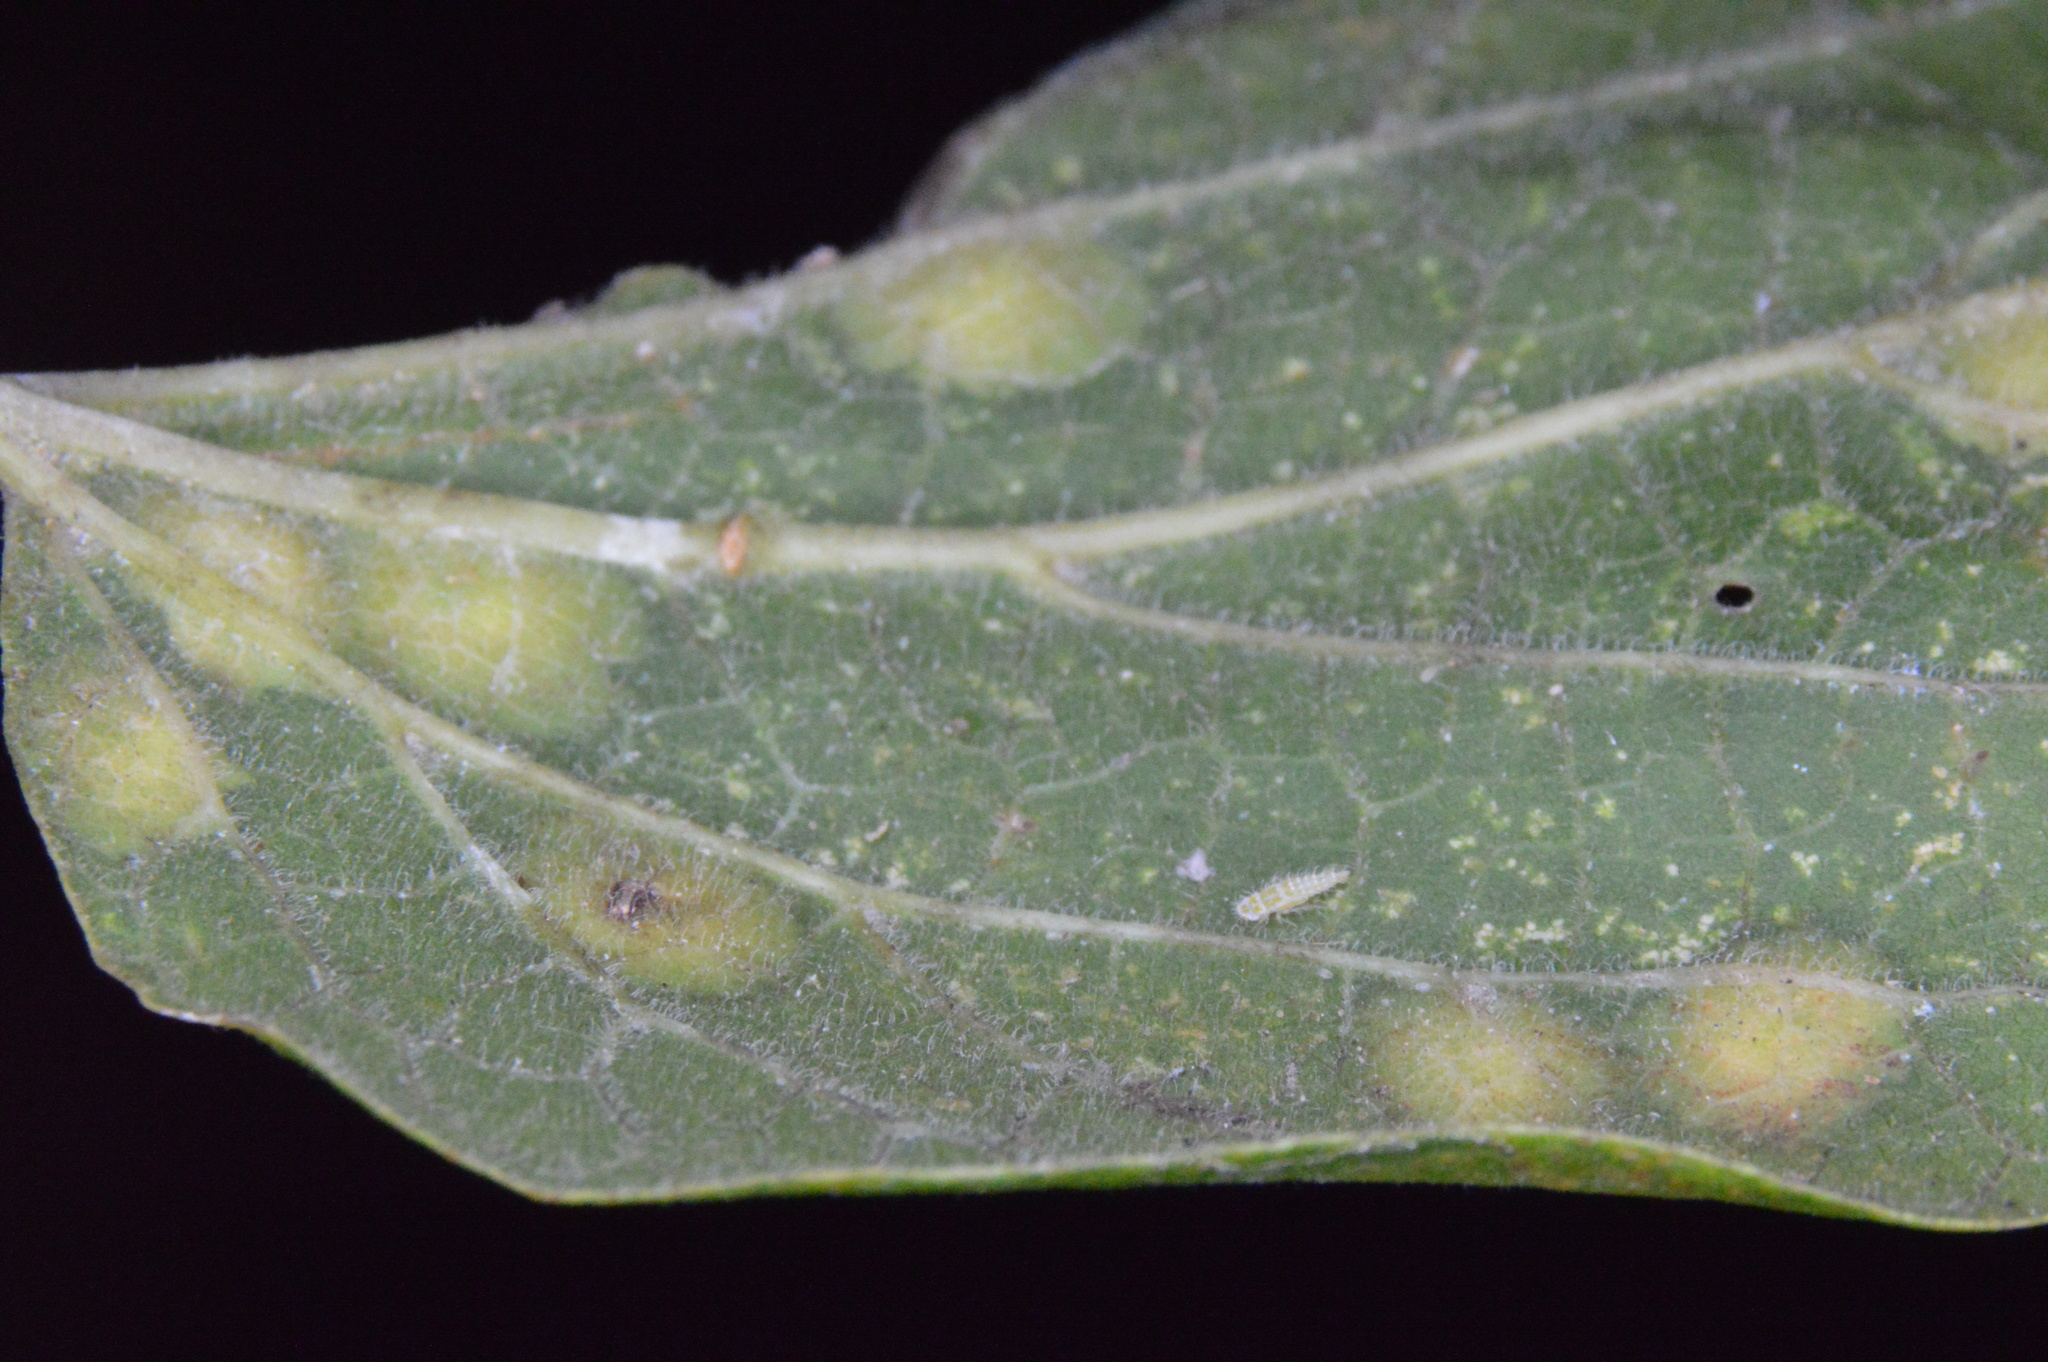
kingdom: Animalia
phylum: Arthropoda
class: Insecta
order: Hemiptera
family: Aphalaridae
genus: Pachypsylla
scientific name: Pachypsylla celtidisvesicula
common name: Hackberry blister gall psyllid
